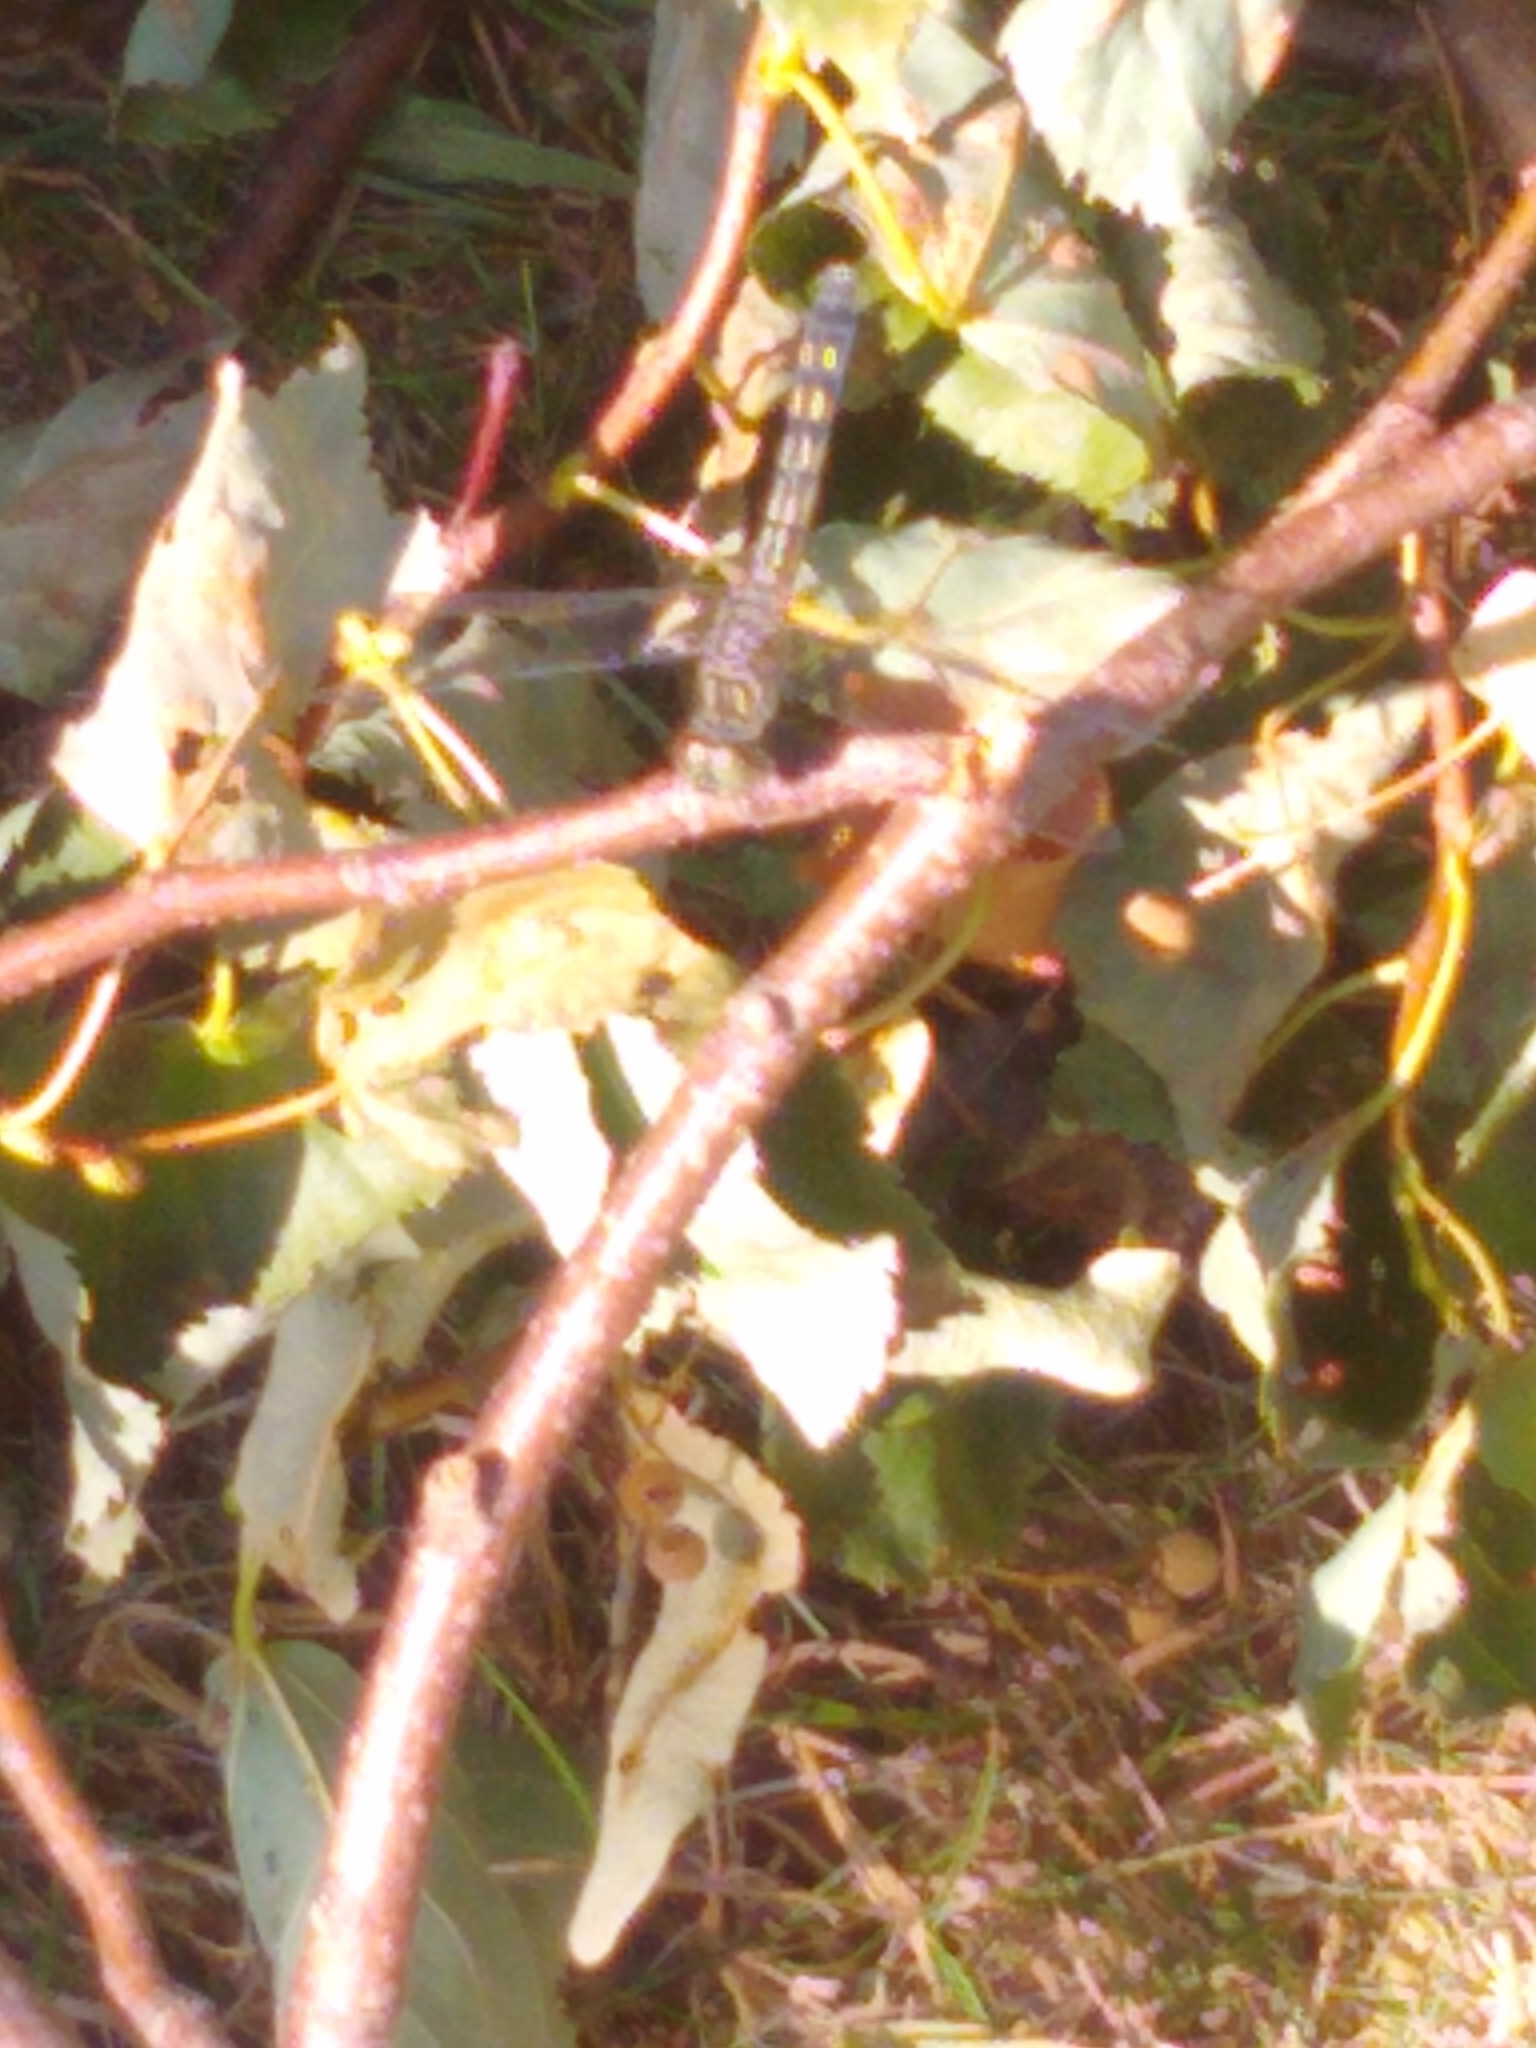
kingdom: Animalia
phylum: Arthropoda
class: Insecta
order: Odonata
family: Libellulidae
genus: Pachydiplax
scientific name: Pachydiplax longipennis
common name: Blue dasher
